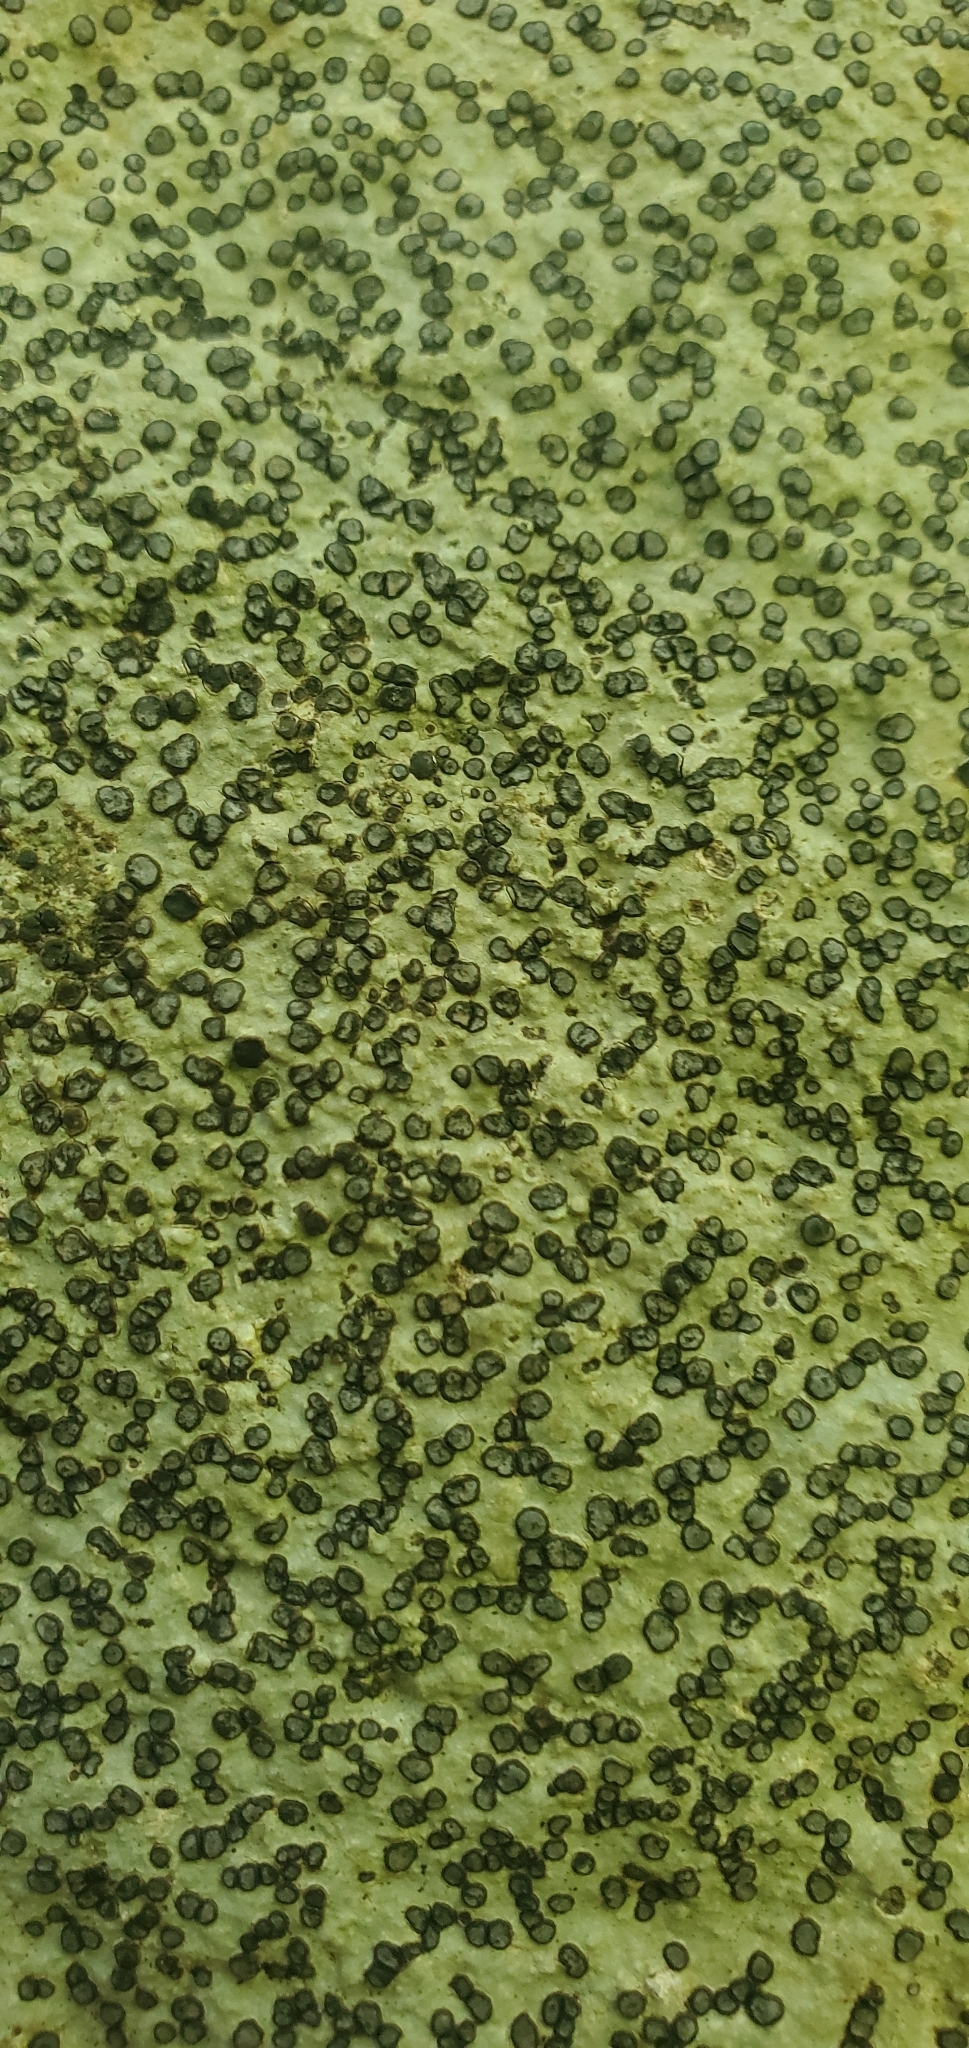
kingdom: Fungi
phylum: Ascomycota
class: Lecanoromycetes
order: Lecideales
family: Lecideaceae
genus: Porpidia
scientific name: Porpidia albocaerulescens
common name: Smokey-eyed boulder lichen
